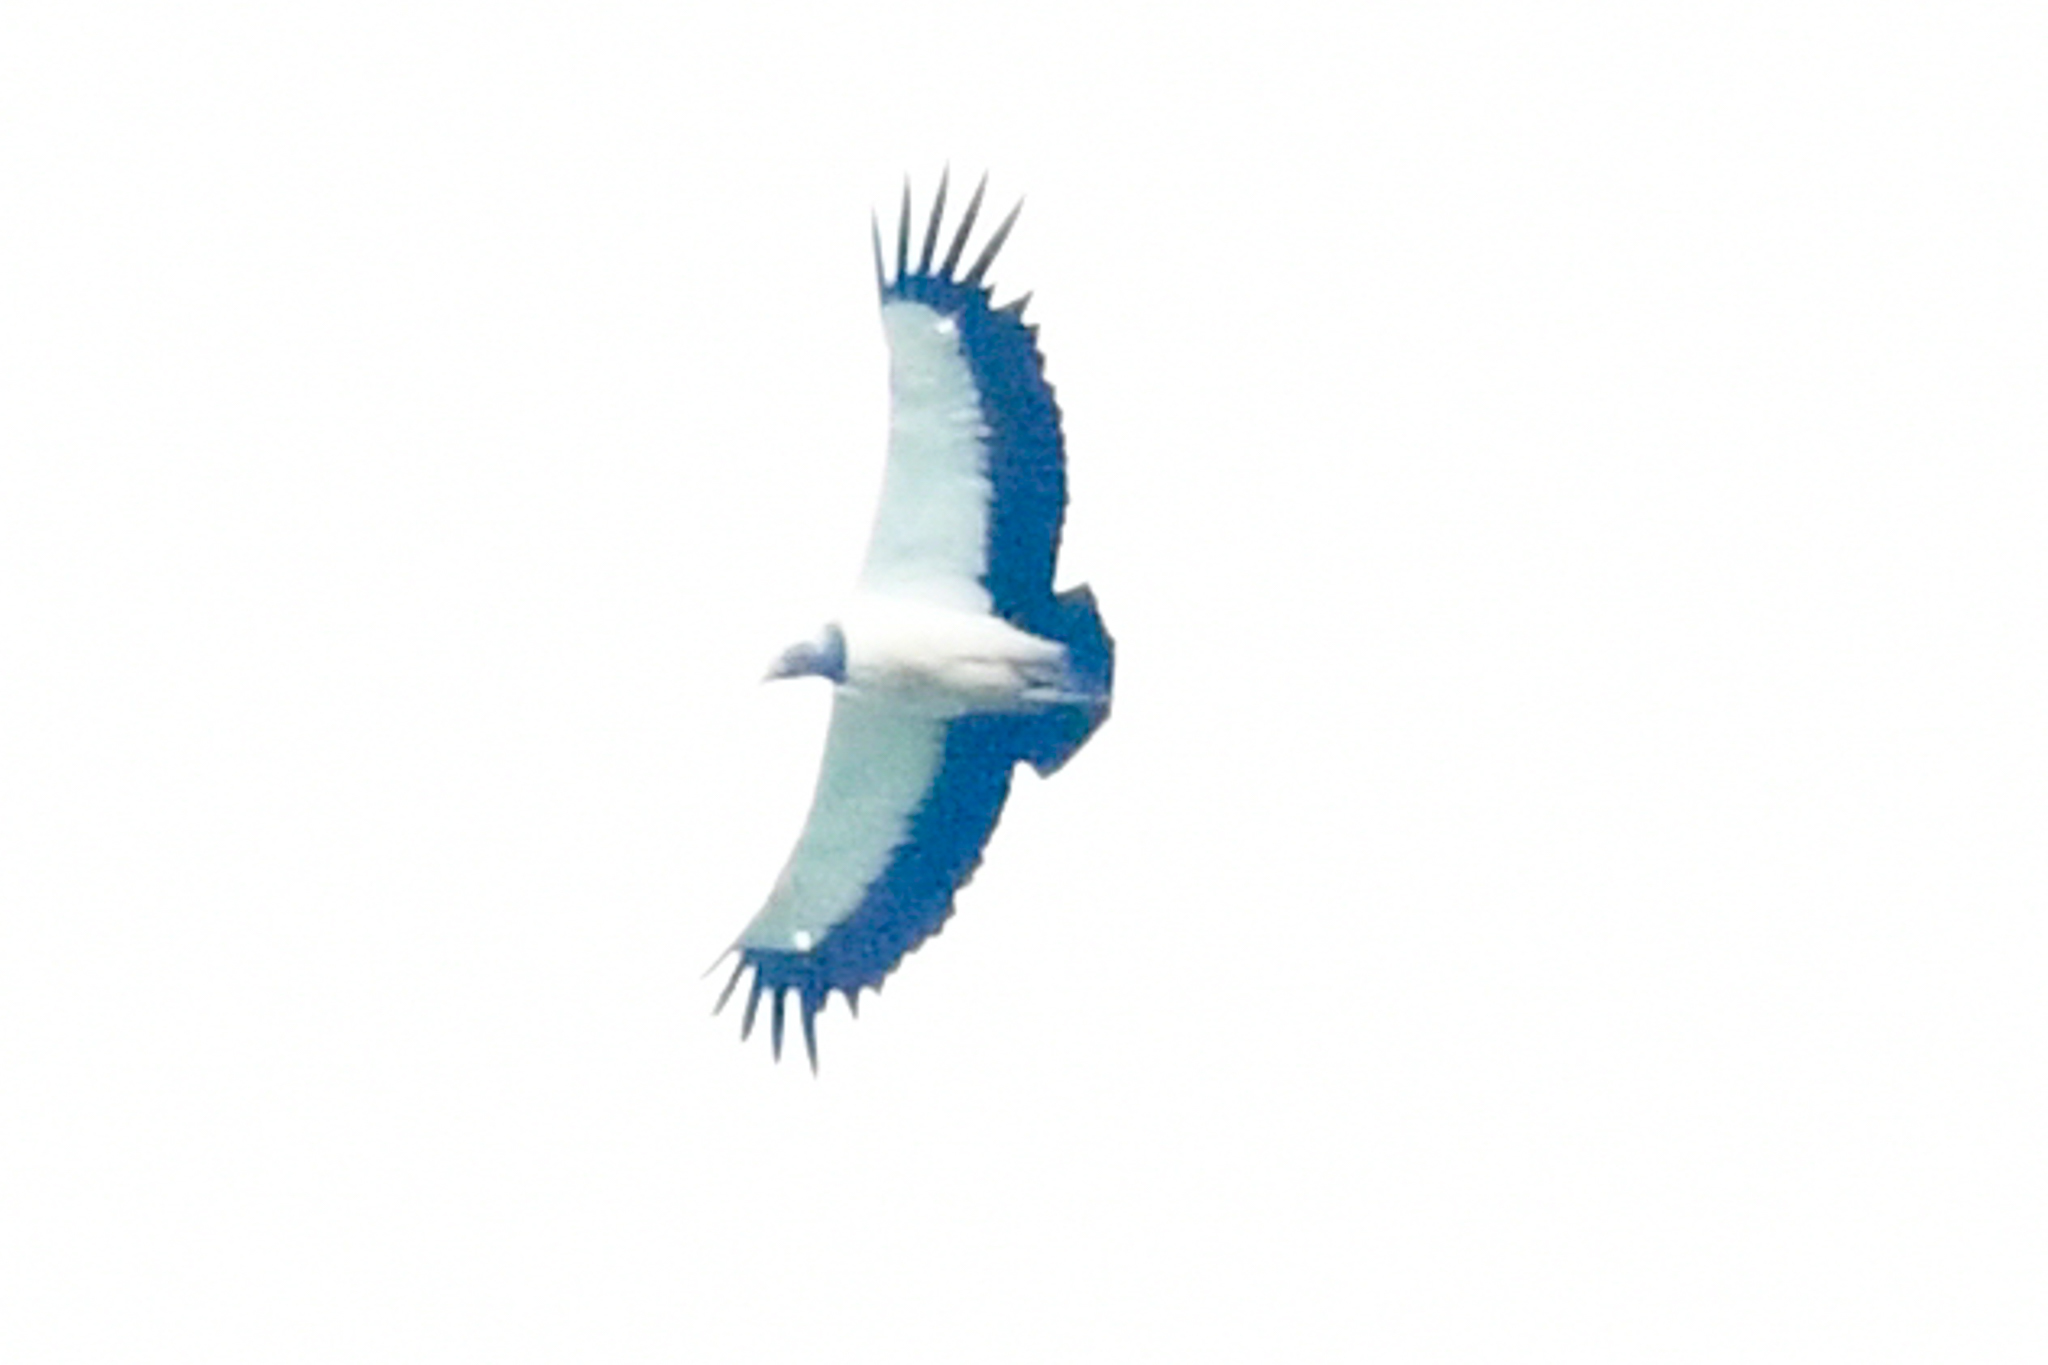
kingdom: Animalia
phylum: Chordata
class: Aves
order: Accipitriformes
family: Cathartidae
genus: Sarcoramphus
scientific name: Sarcoramphus papa
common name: King vulture
